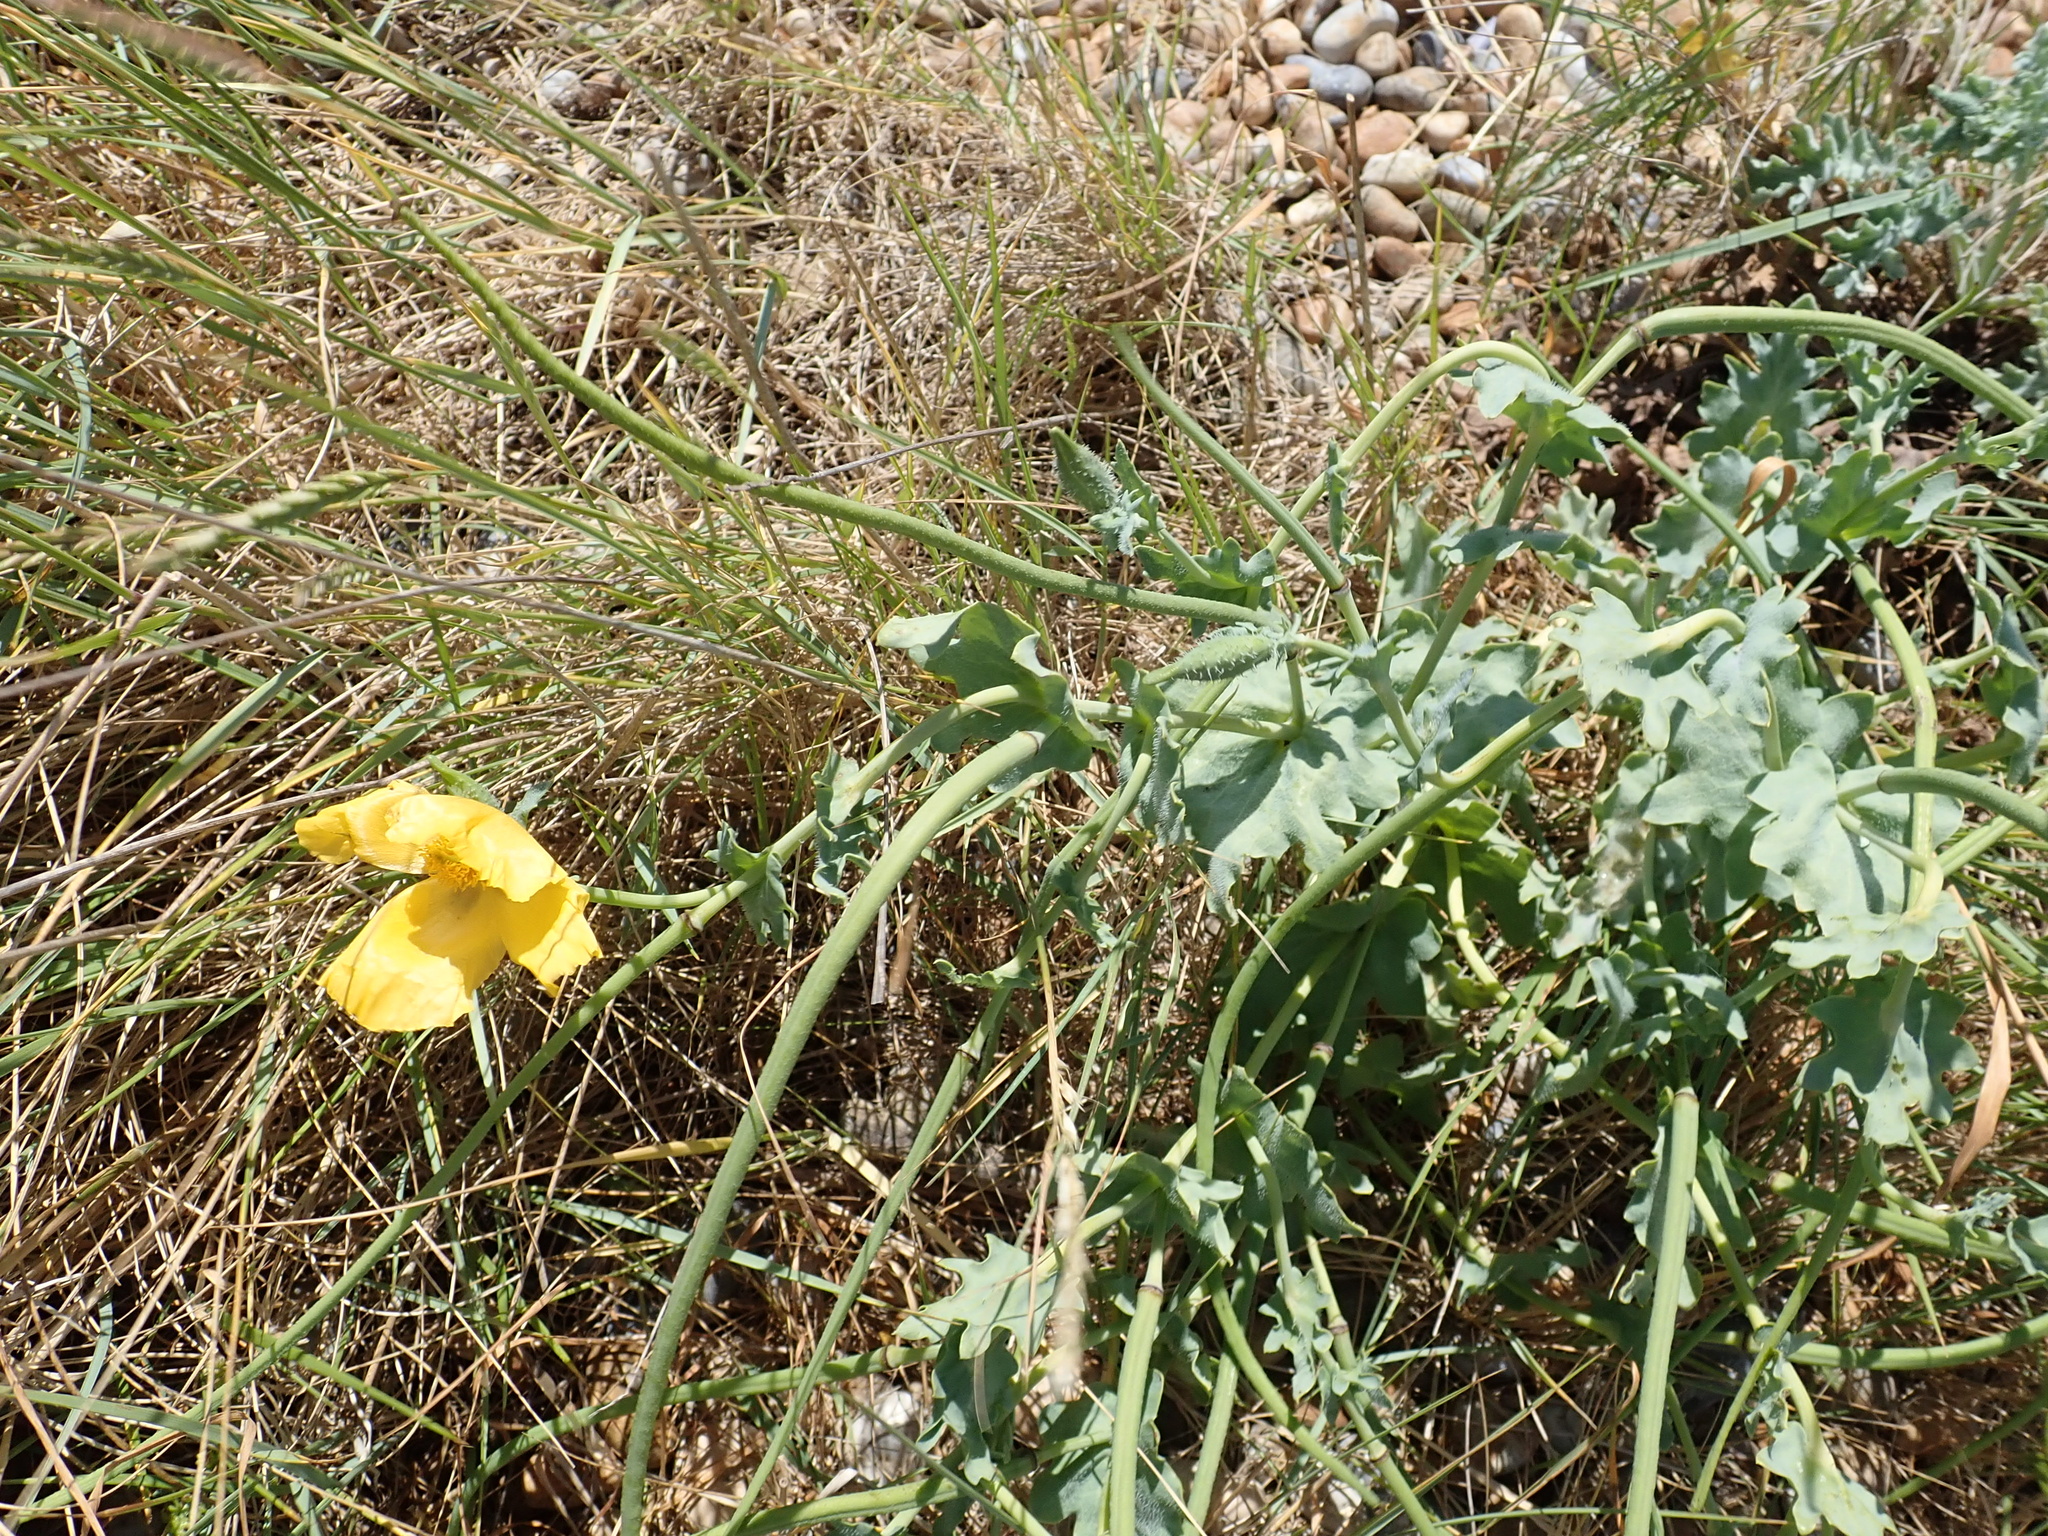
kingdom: Plantae
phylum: Tracheophyta
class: Magnoliopsida
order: Ranunculales
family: Papaveraceae
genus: Glaucium
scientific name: Glaucium flavum
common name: Yellow horned-poppy
